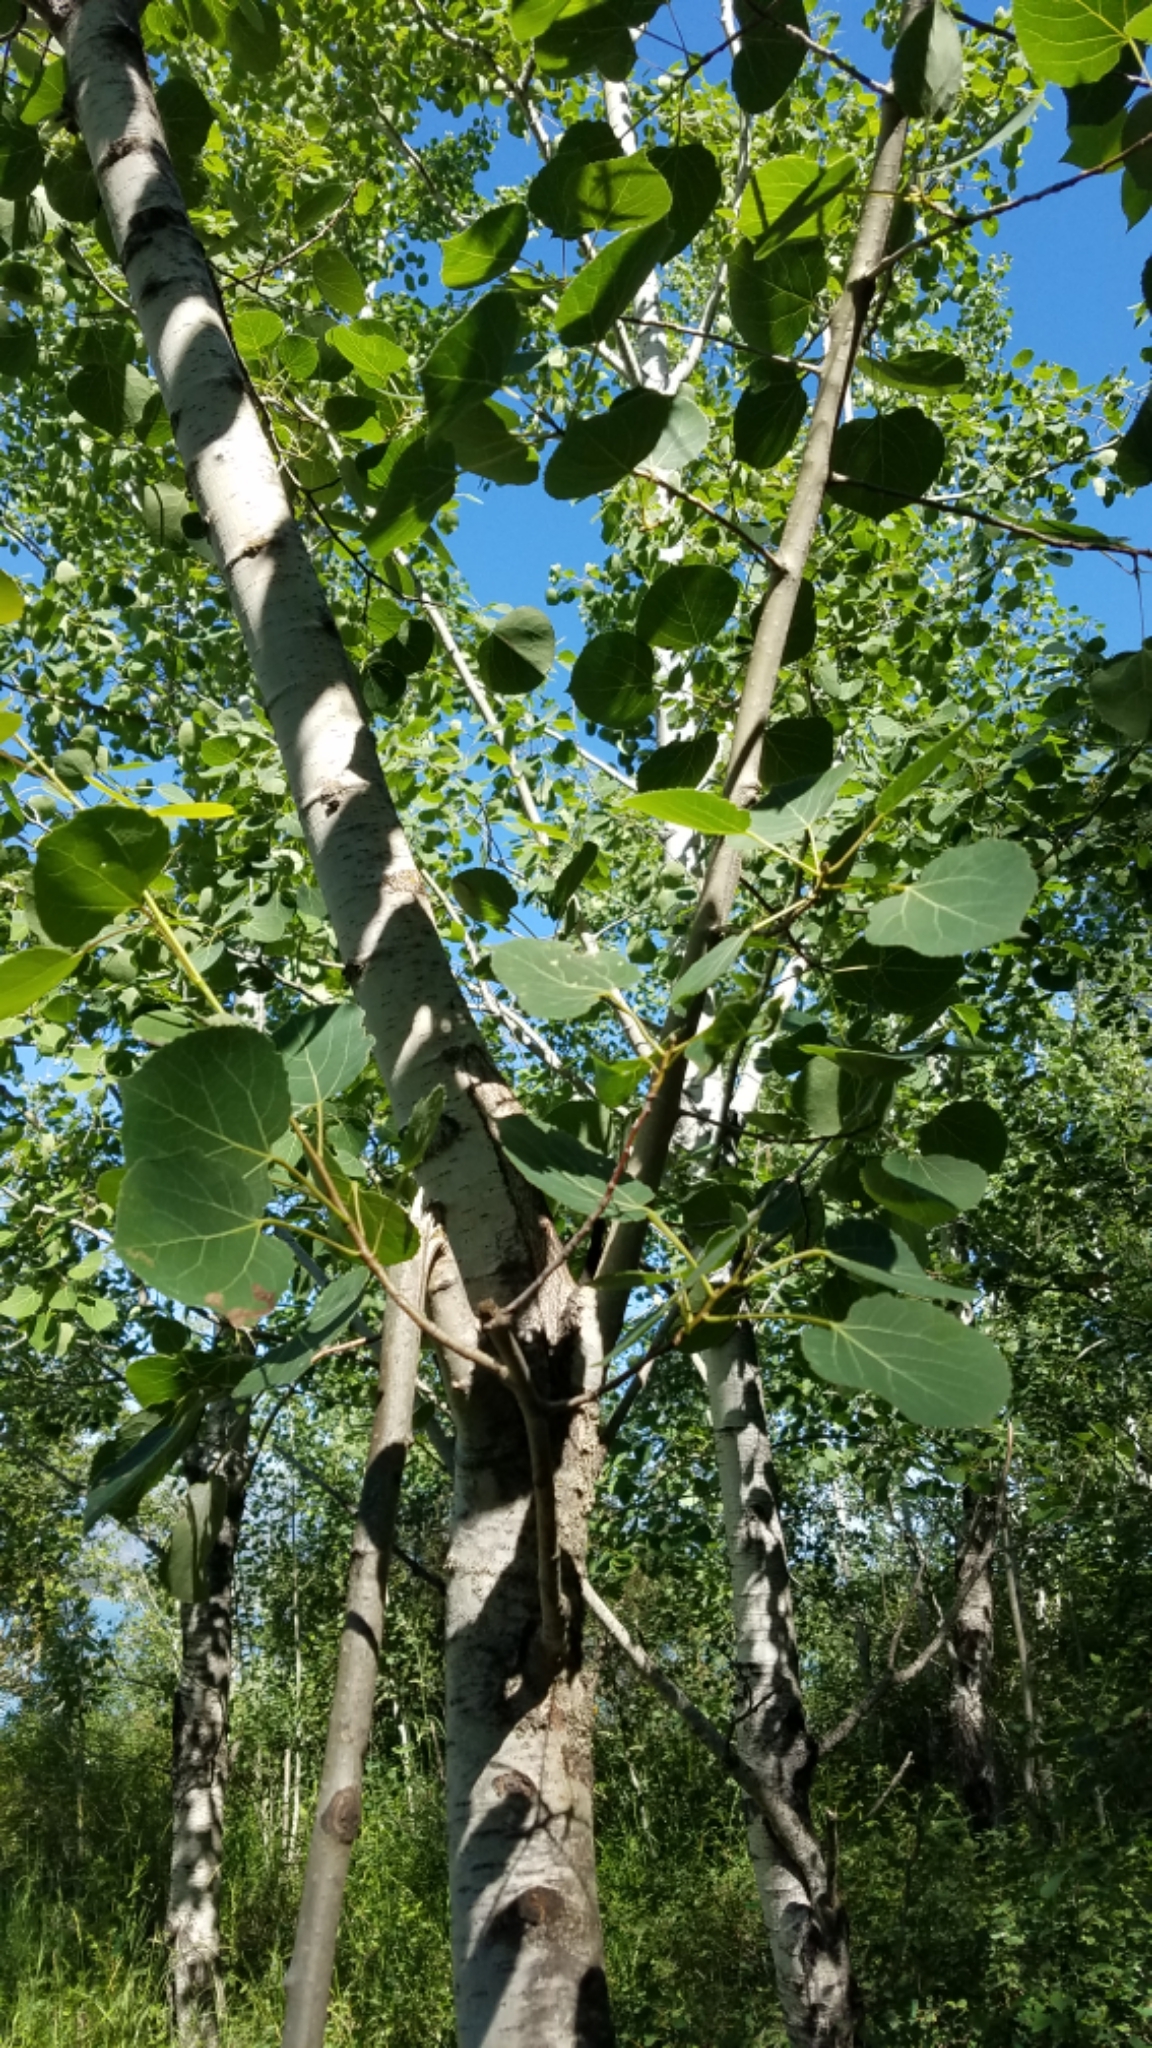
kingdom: Plantae
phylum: Tracheophyta
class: Magnoliopsida
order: Malpighiales
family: Salicaceae
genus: Populus
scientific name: Populus tremuloides
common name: Quaking aspen
